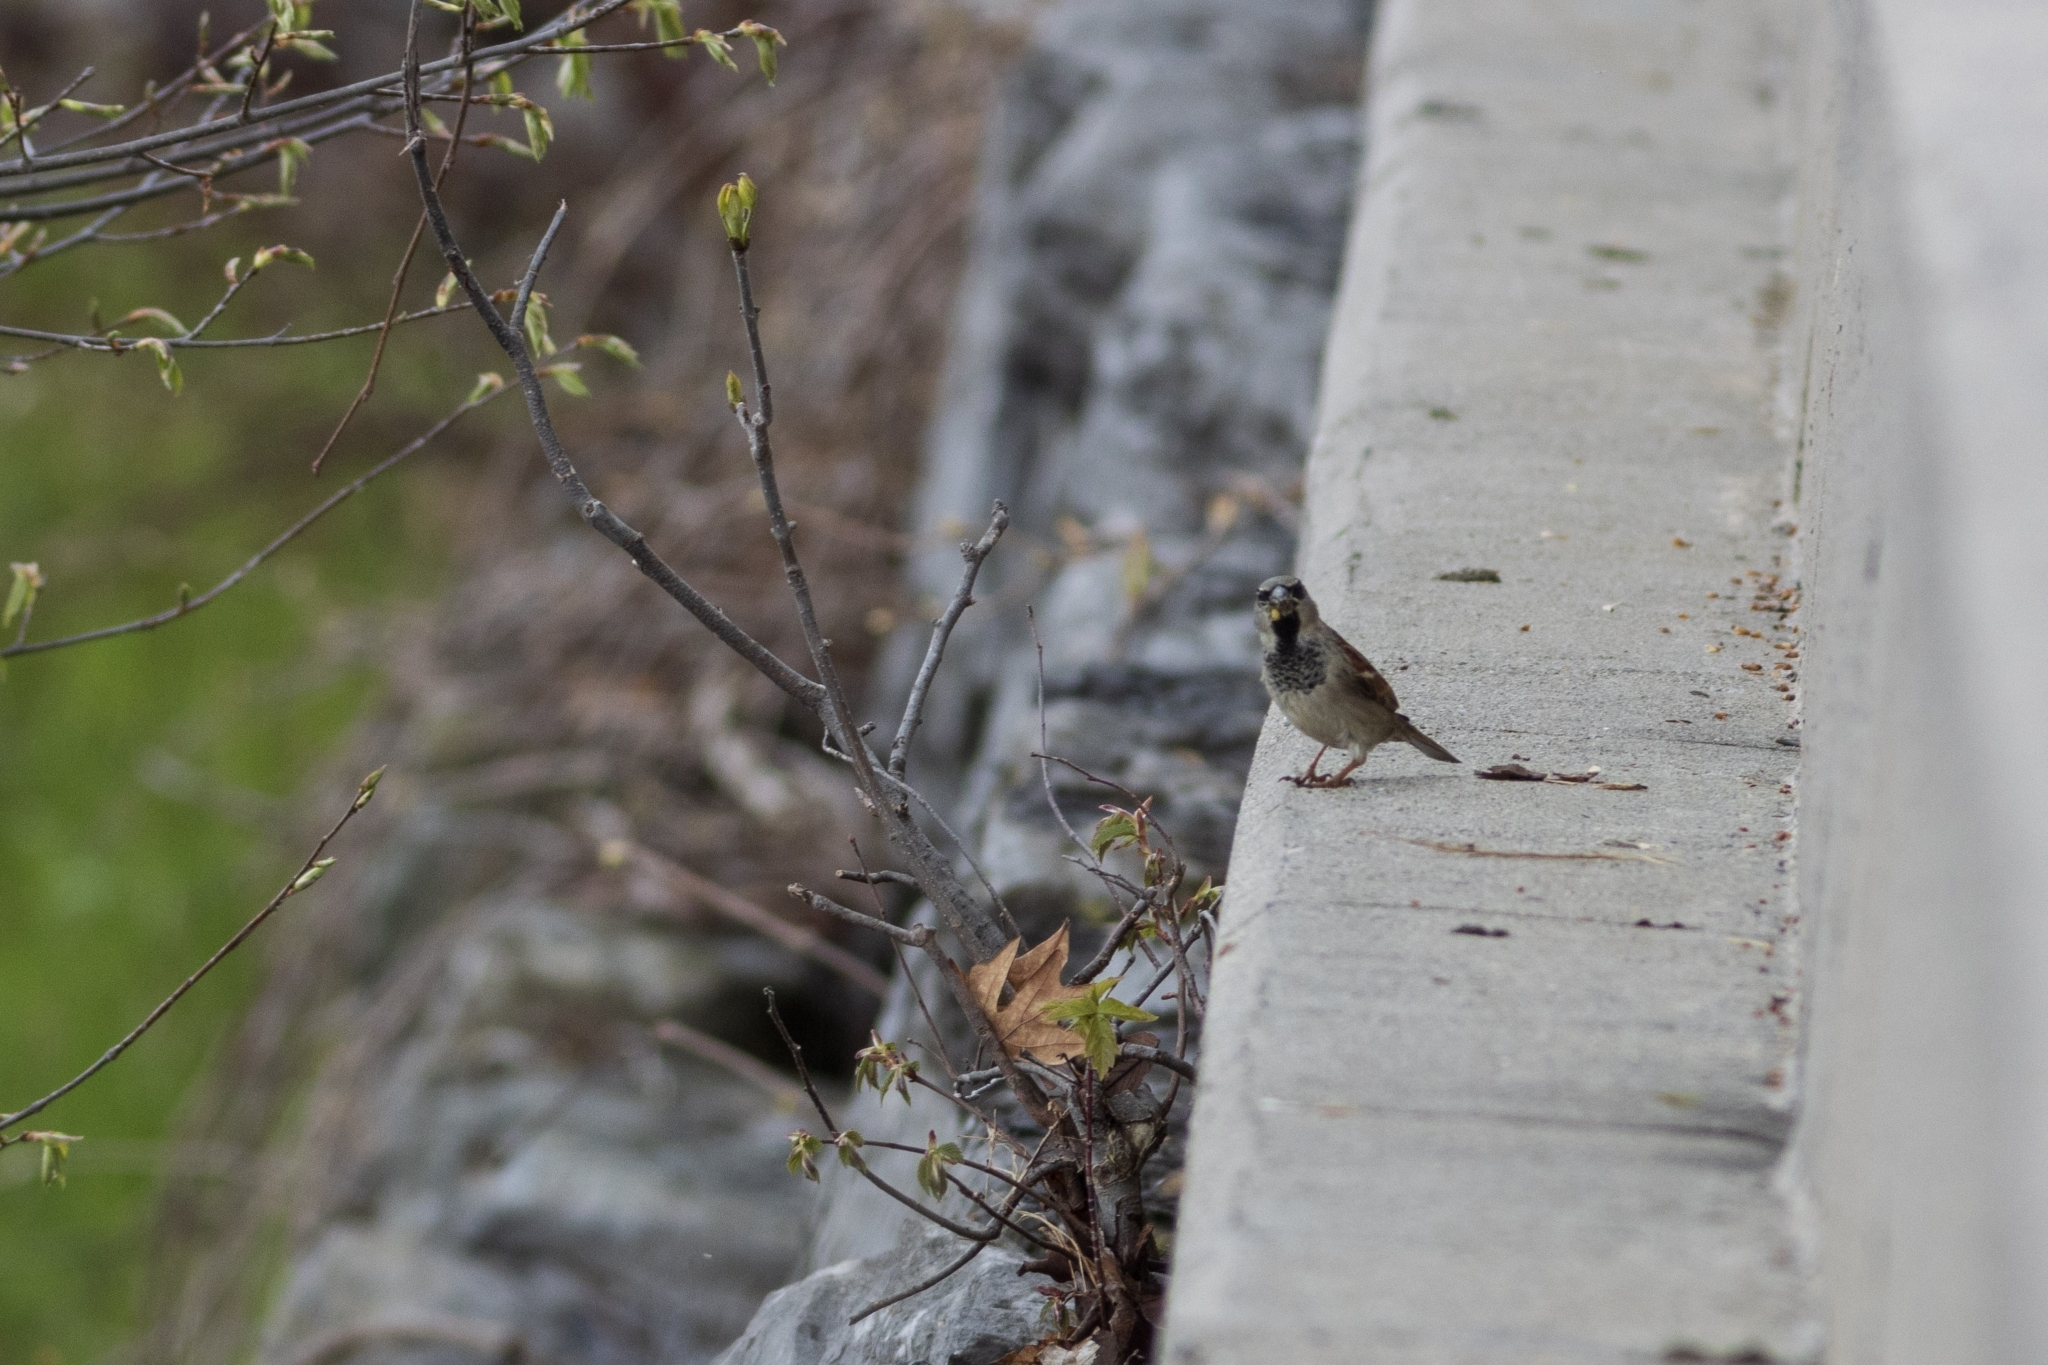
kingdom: Animalia
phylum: Chordata
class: Aves
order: Passeriformes
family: Passeridae
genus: Passer
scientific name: Passer domesticus
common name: House sparrow
